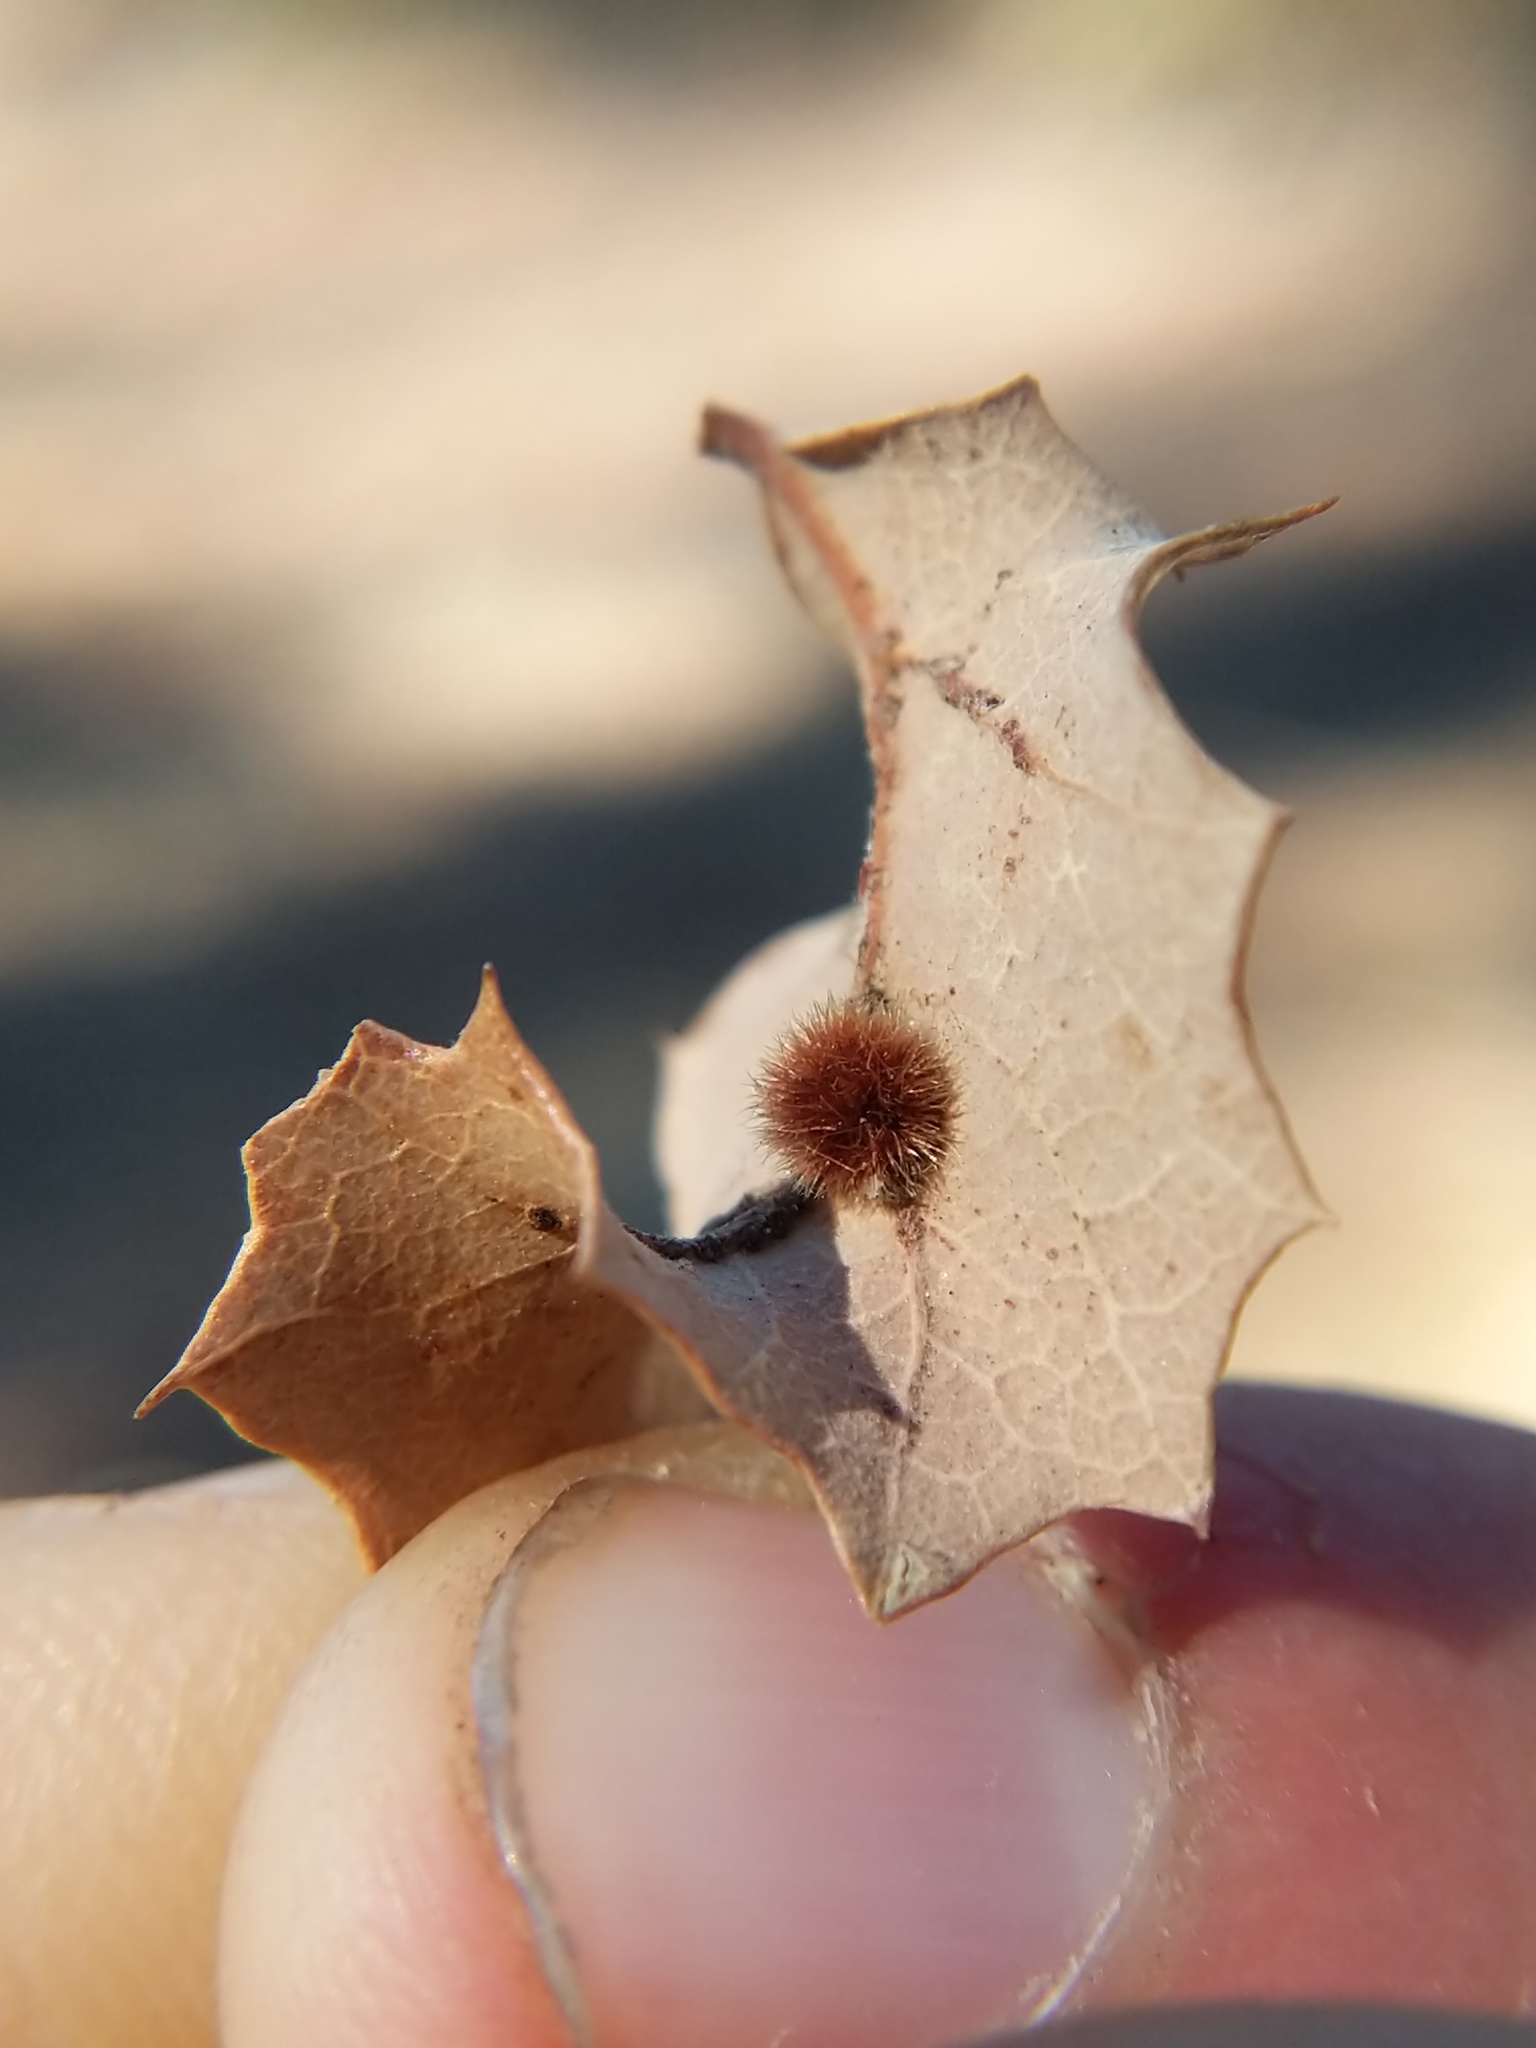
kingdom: Animalia
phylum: Arthropoda
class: Insecta
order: Hymenoptera
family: Cynipidae
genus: Atrusca
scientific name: Atrusca
